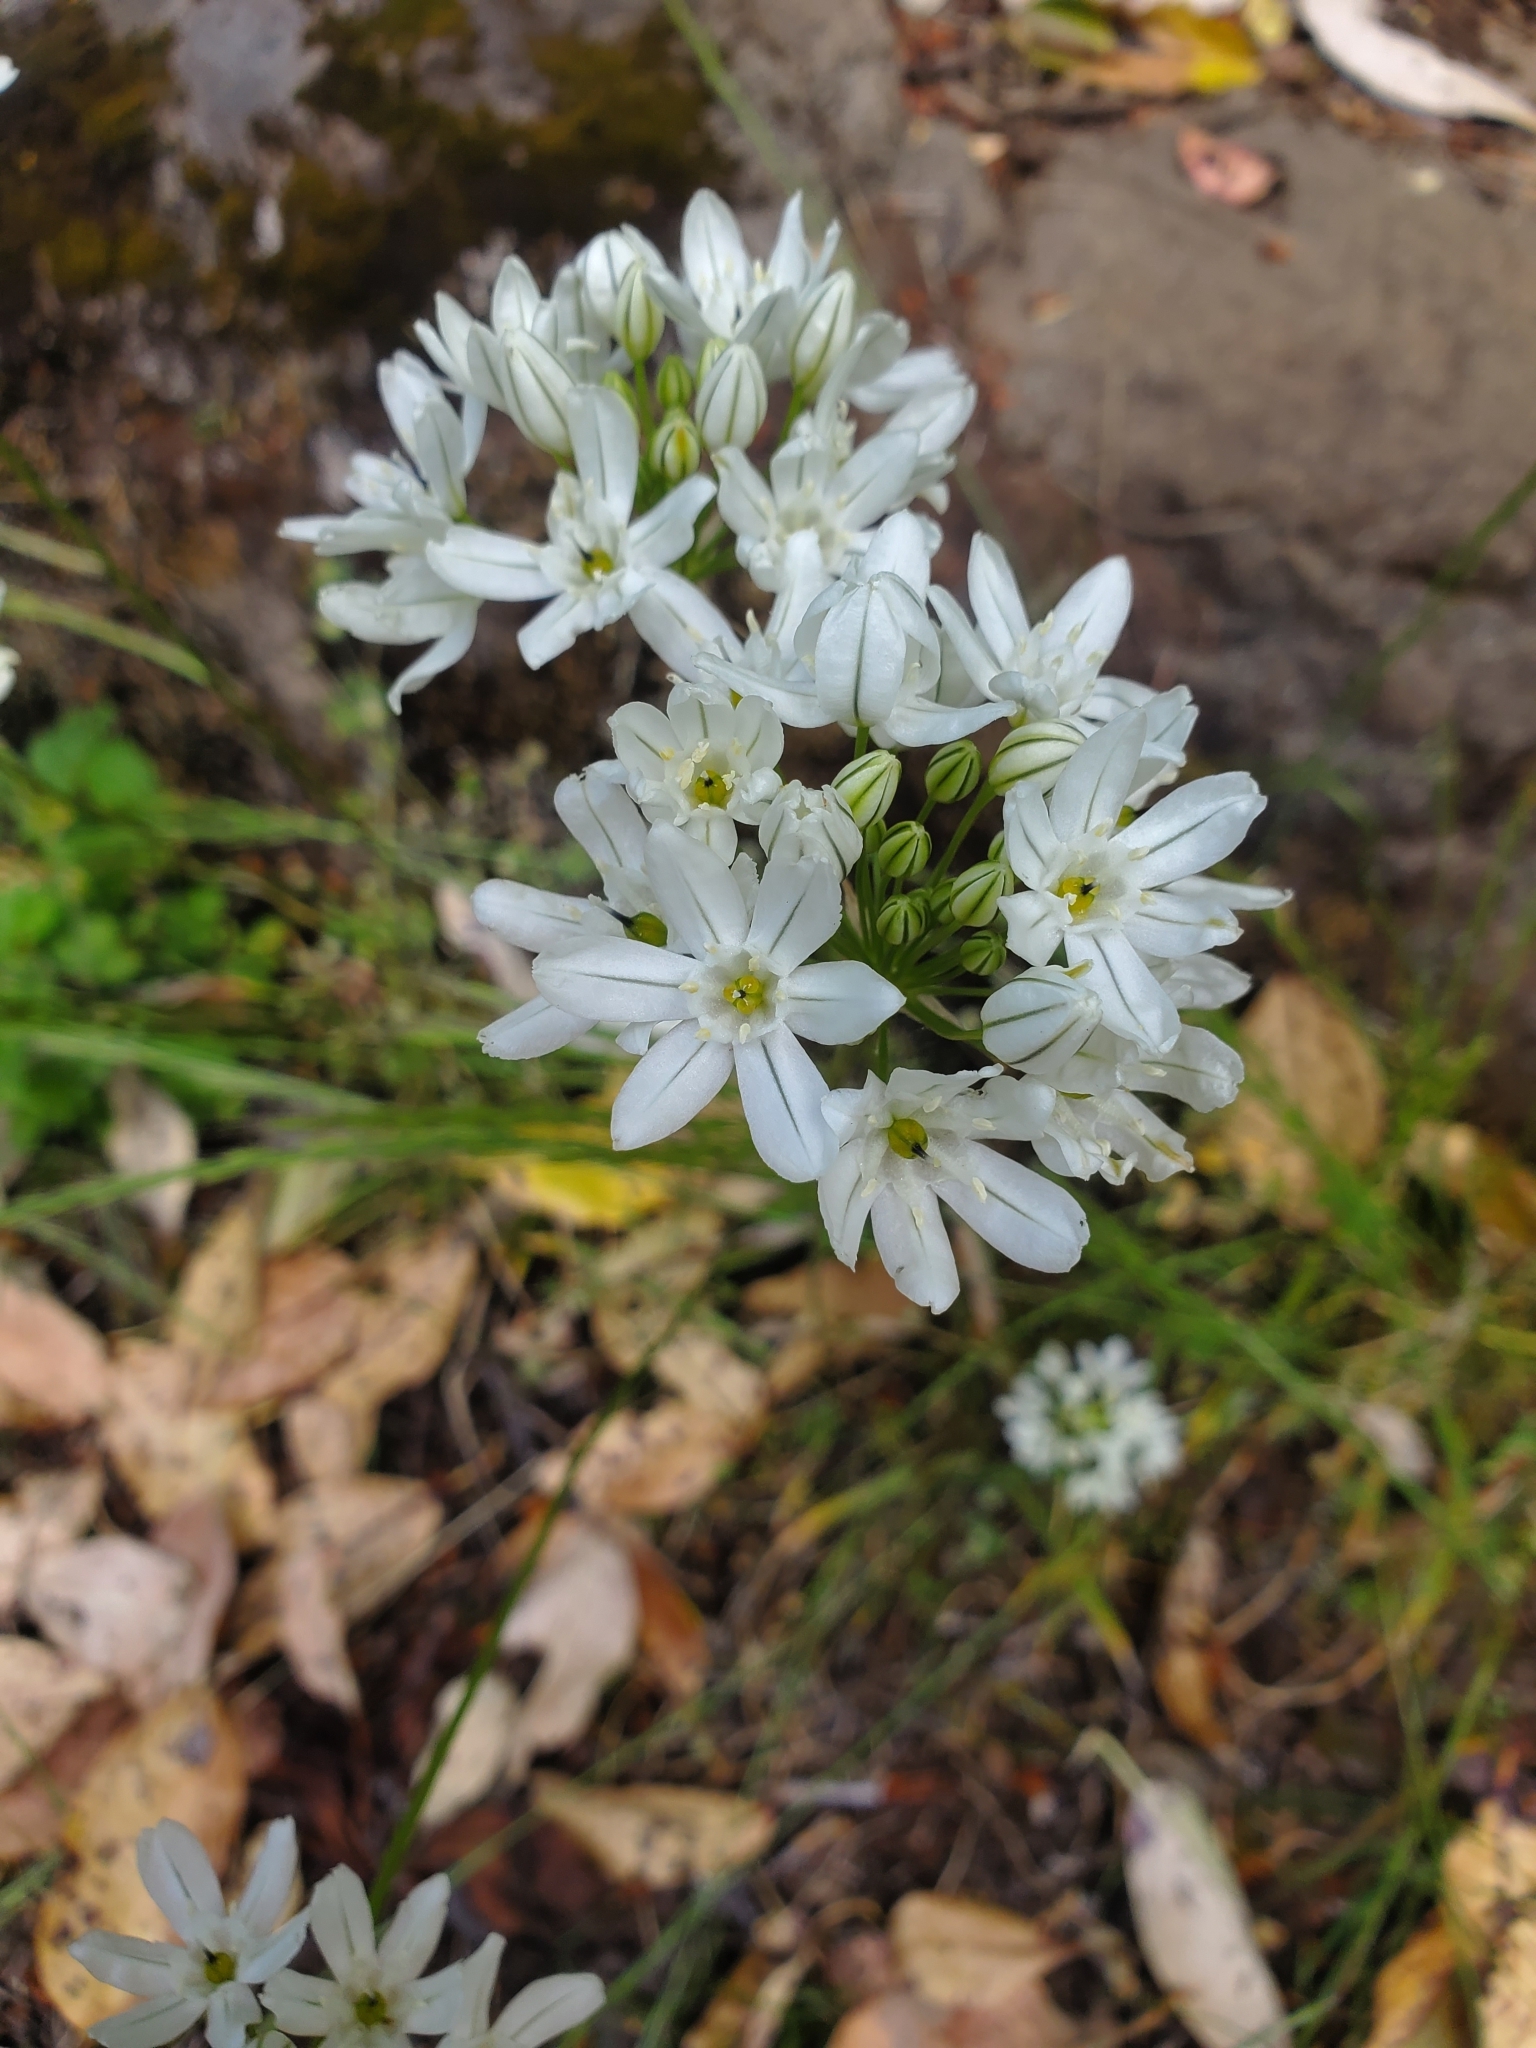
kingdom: Plantae
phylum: Tracheophyta
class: Liliopsida
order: Asparagales
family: Asparagaceae
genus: Triteleia
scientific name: Triteleia hyacinthina
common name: White brodiaea
